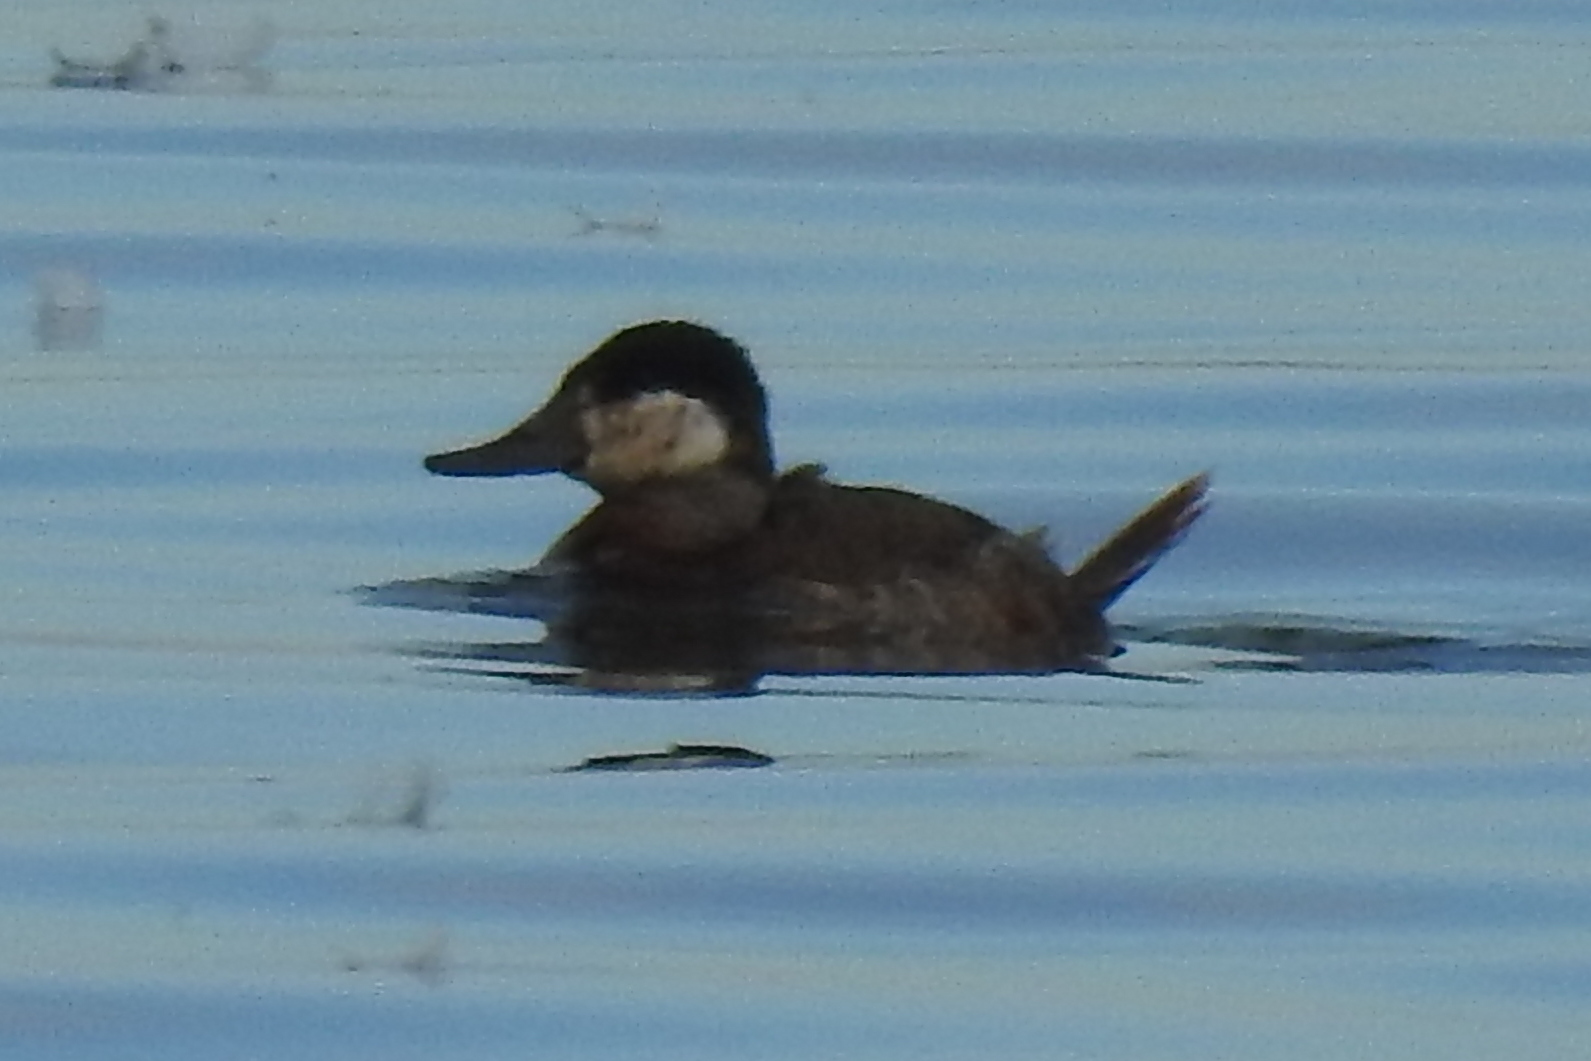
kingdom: Animalia
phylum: Chordata
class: Aves
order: Anseriformes
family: Anatidae
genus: Oxyura
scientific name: Oxyura jamaicensis
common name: Ruddy duck
